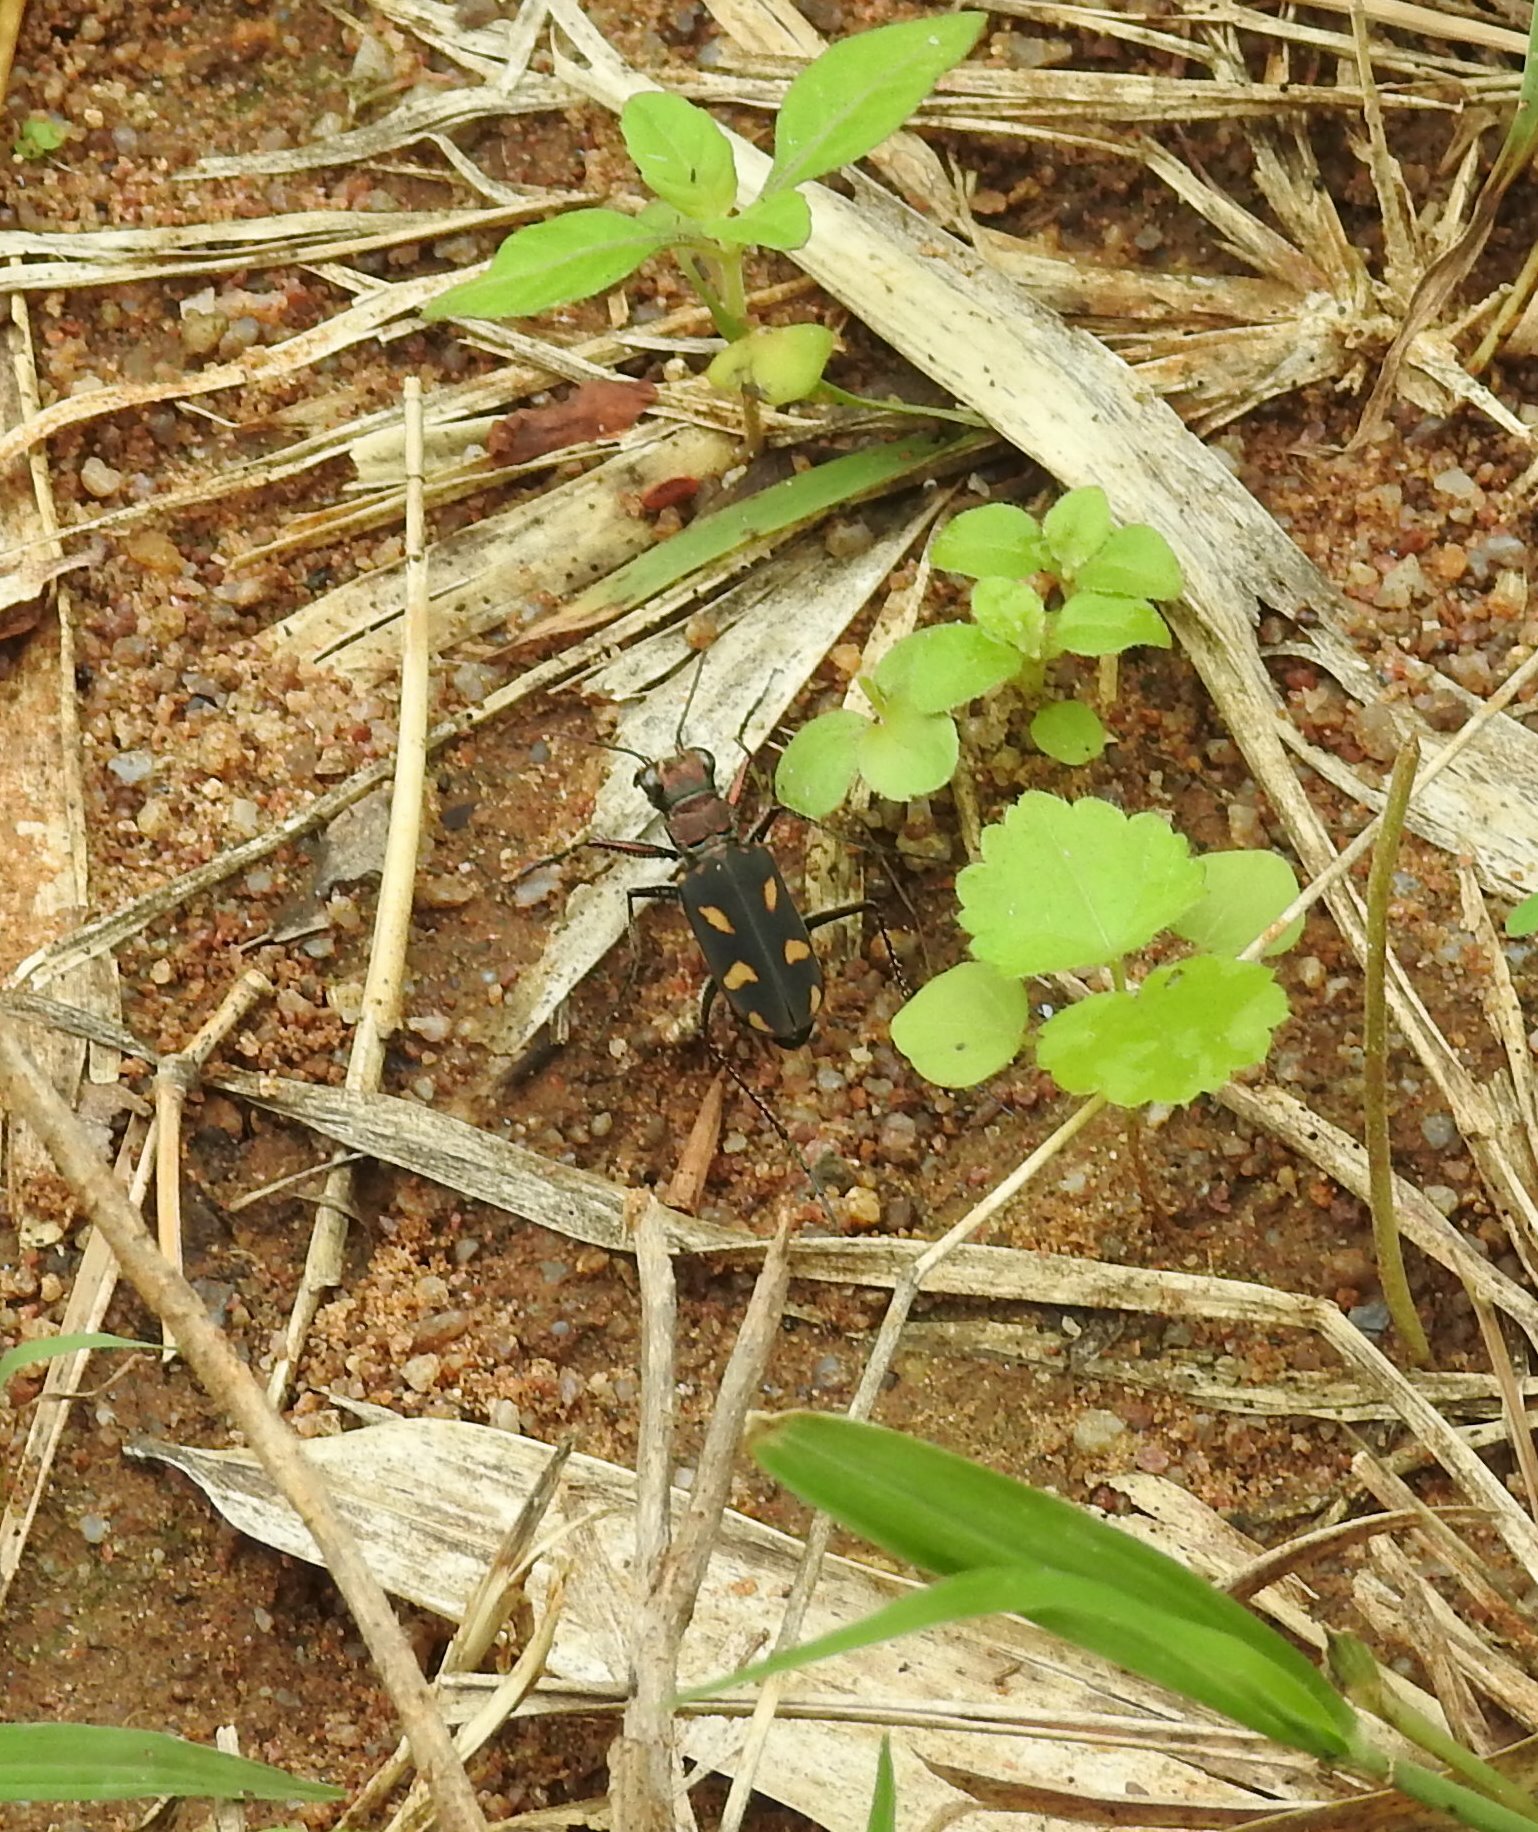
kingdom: Animalia
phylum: Arthropoda
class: Insecta
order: Coleoptera
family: Carabidae
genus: Cicindela
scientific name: Cicindela calligramma
